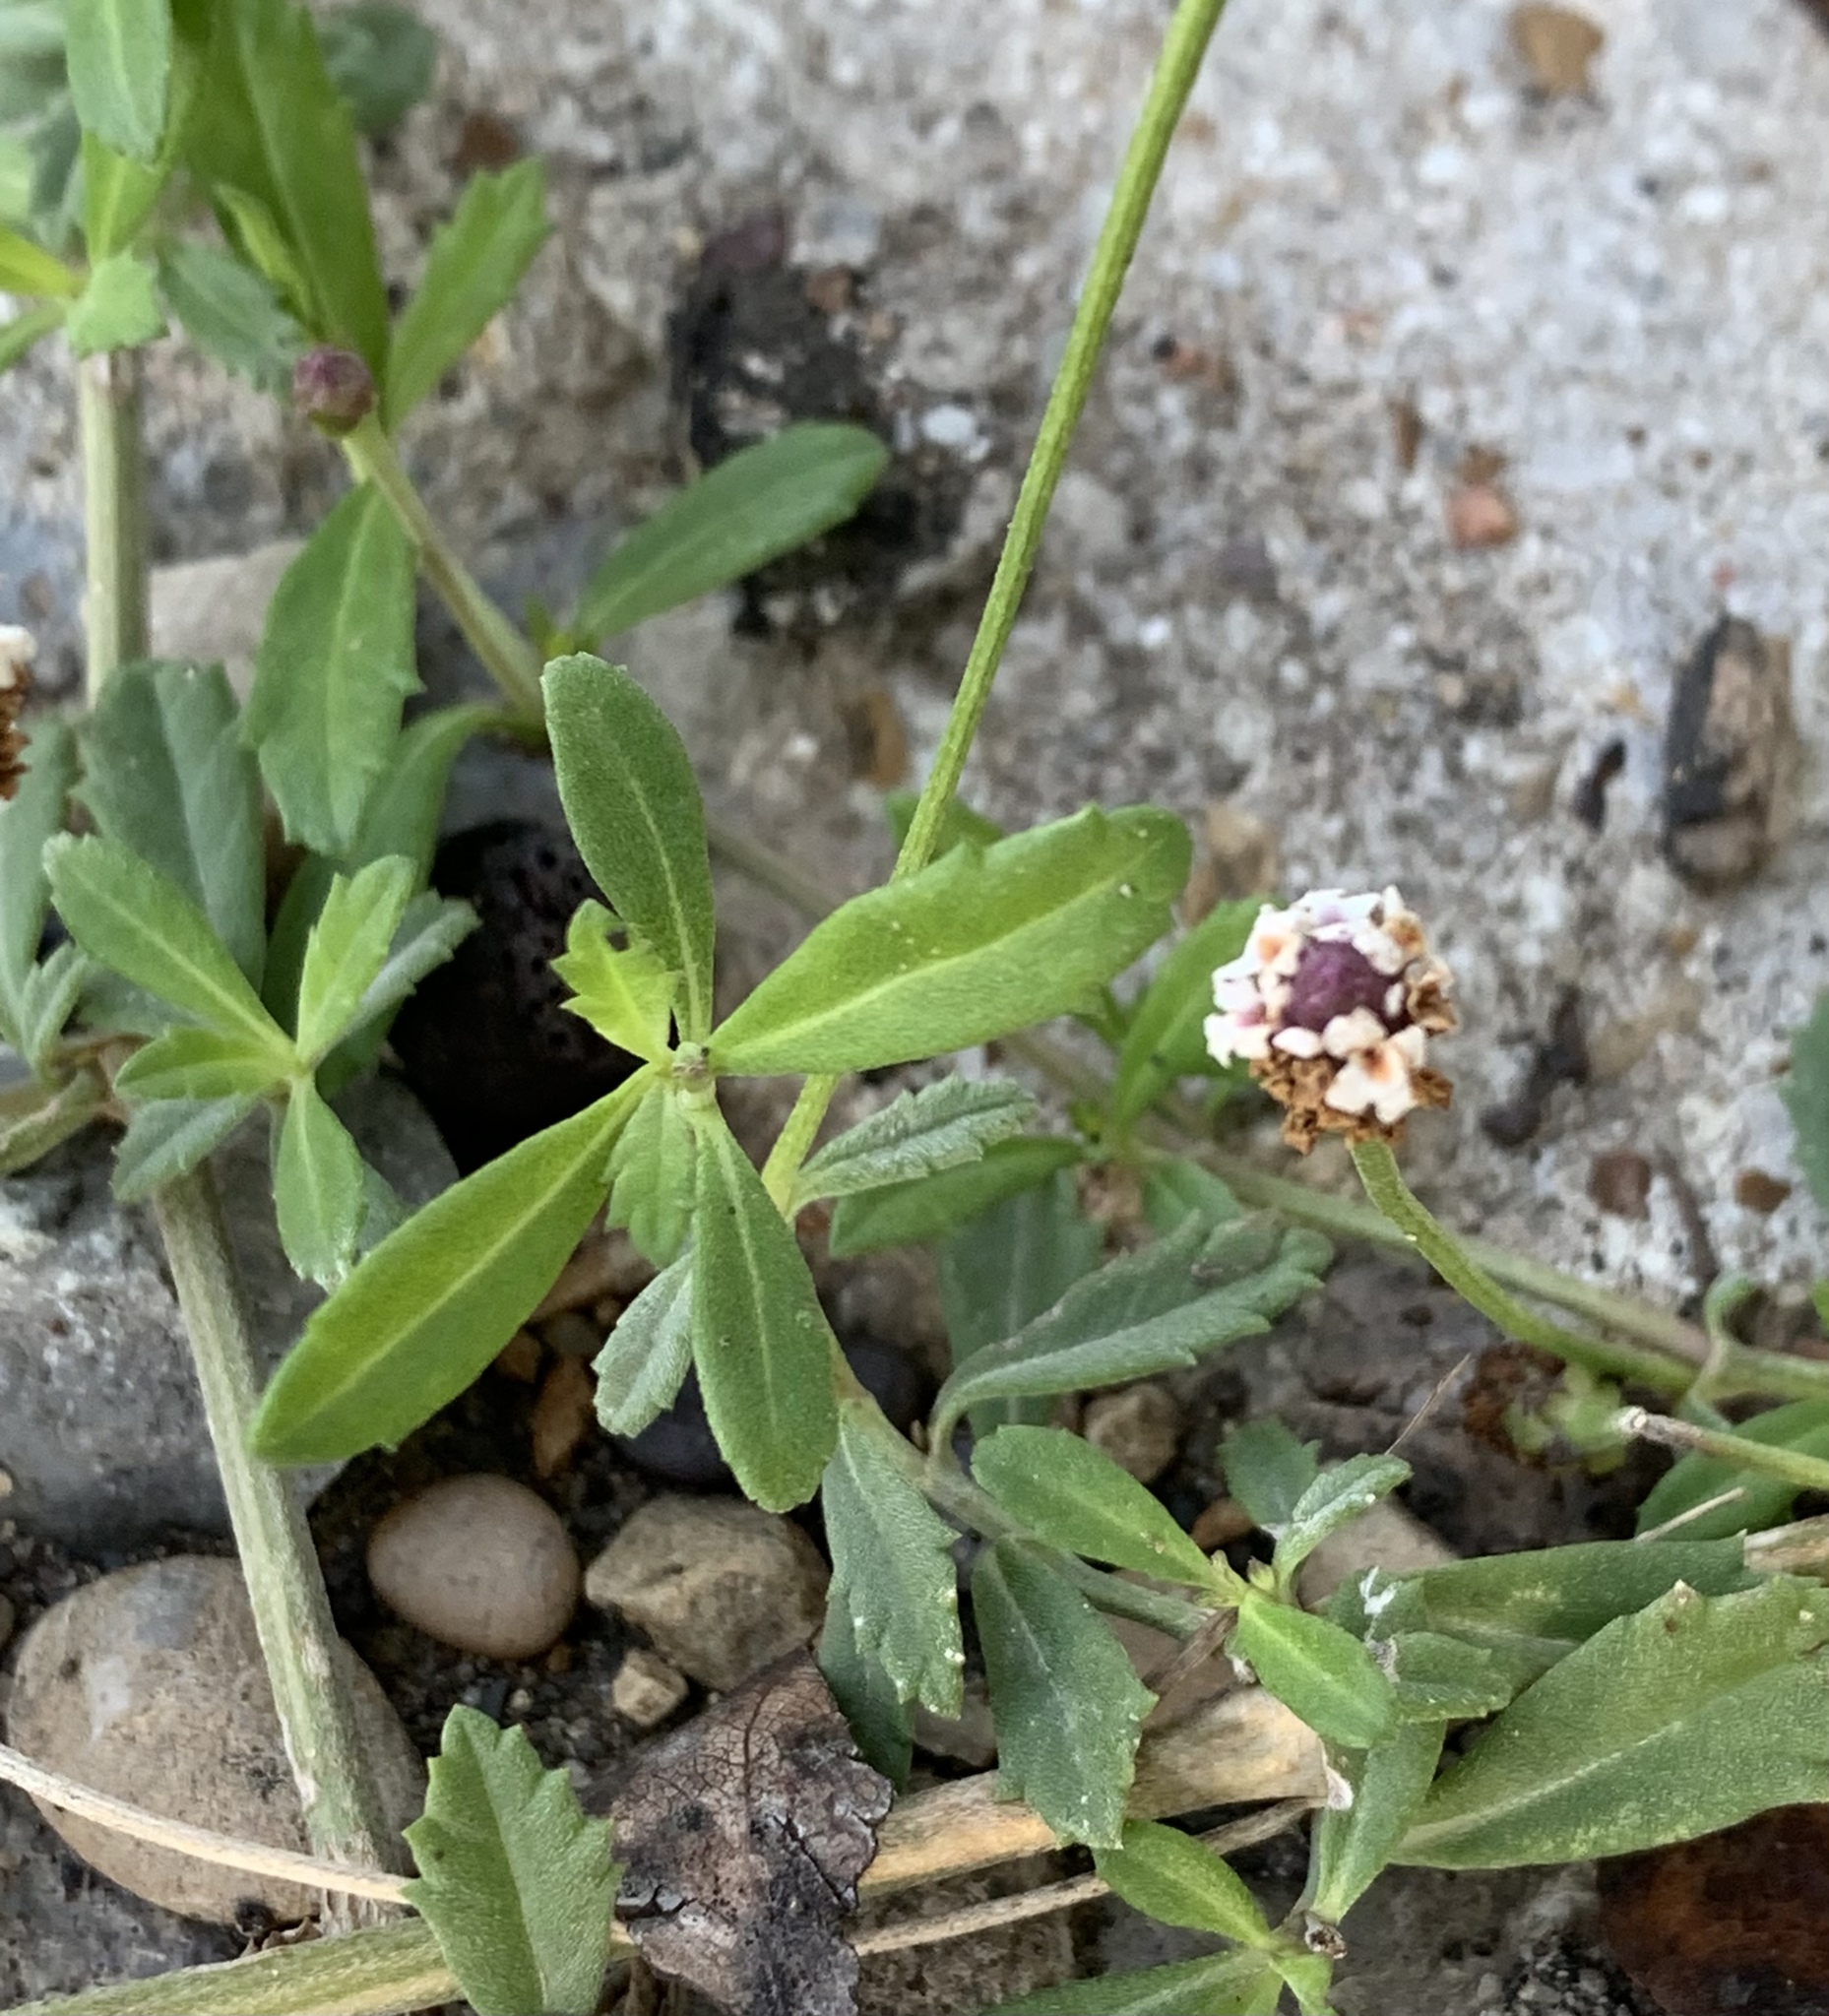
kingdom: Plantae
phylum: Tracheophyta
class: Magnoliopsida
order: Lamiales
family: Verbenaceae
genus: Phyla
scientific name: Phyla nodiflora
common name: Frogfruit
